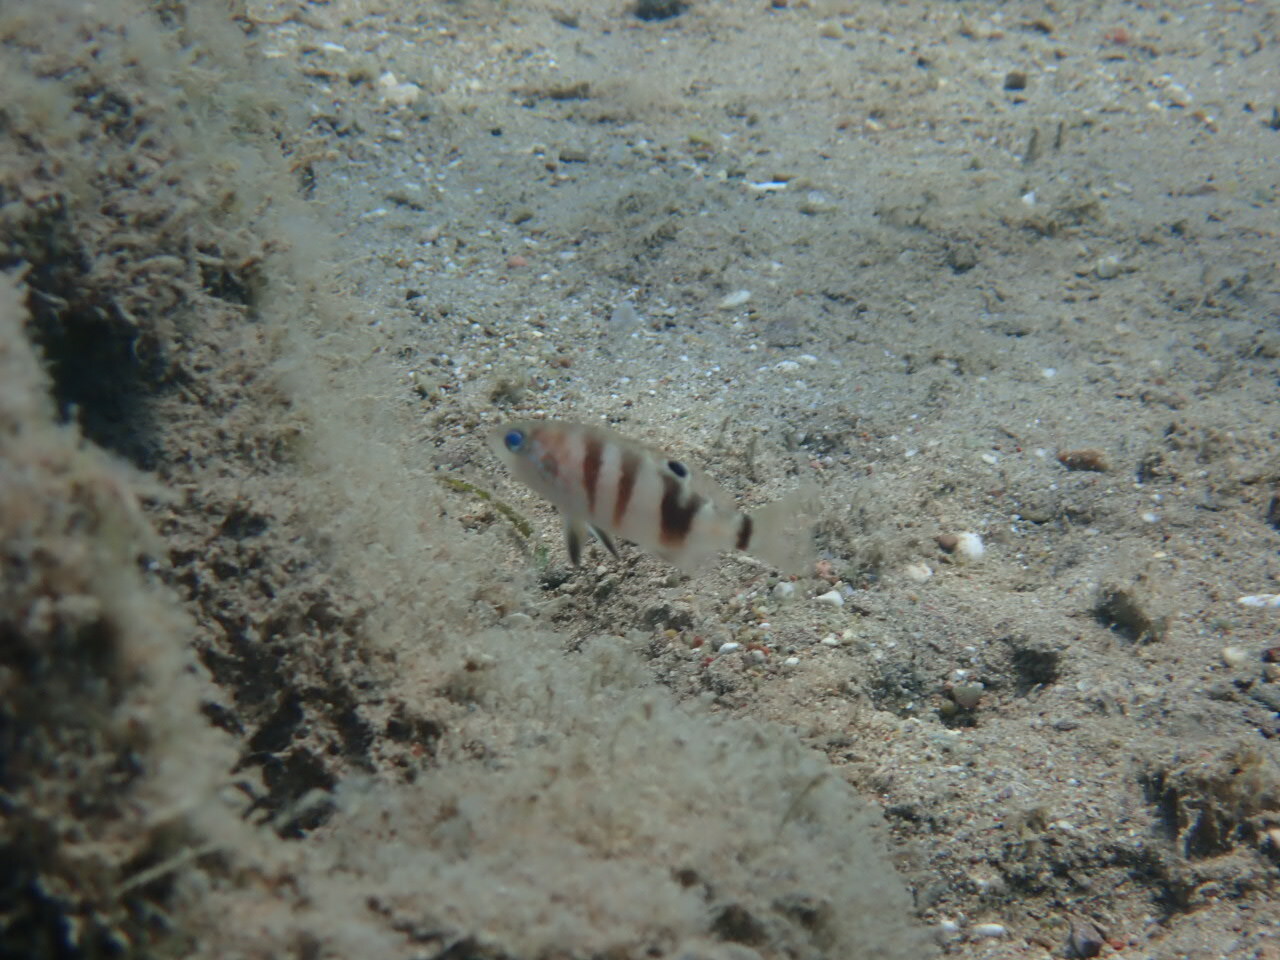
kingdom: Animalia
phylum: Chordata
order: Perciformes
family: Serranidae
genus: Serranus
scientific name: Serranus hepatus
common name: Brown comber
